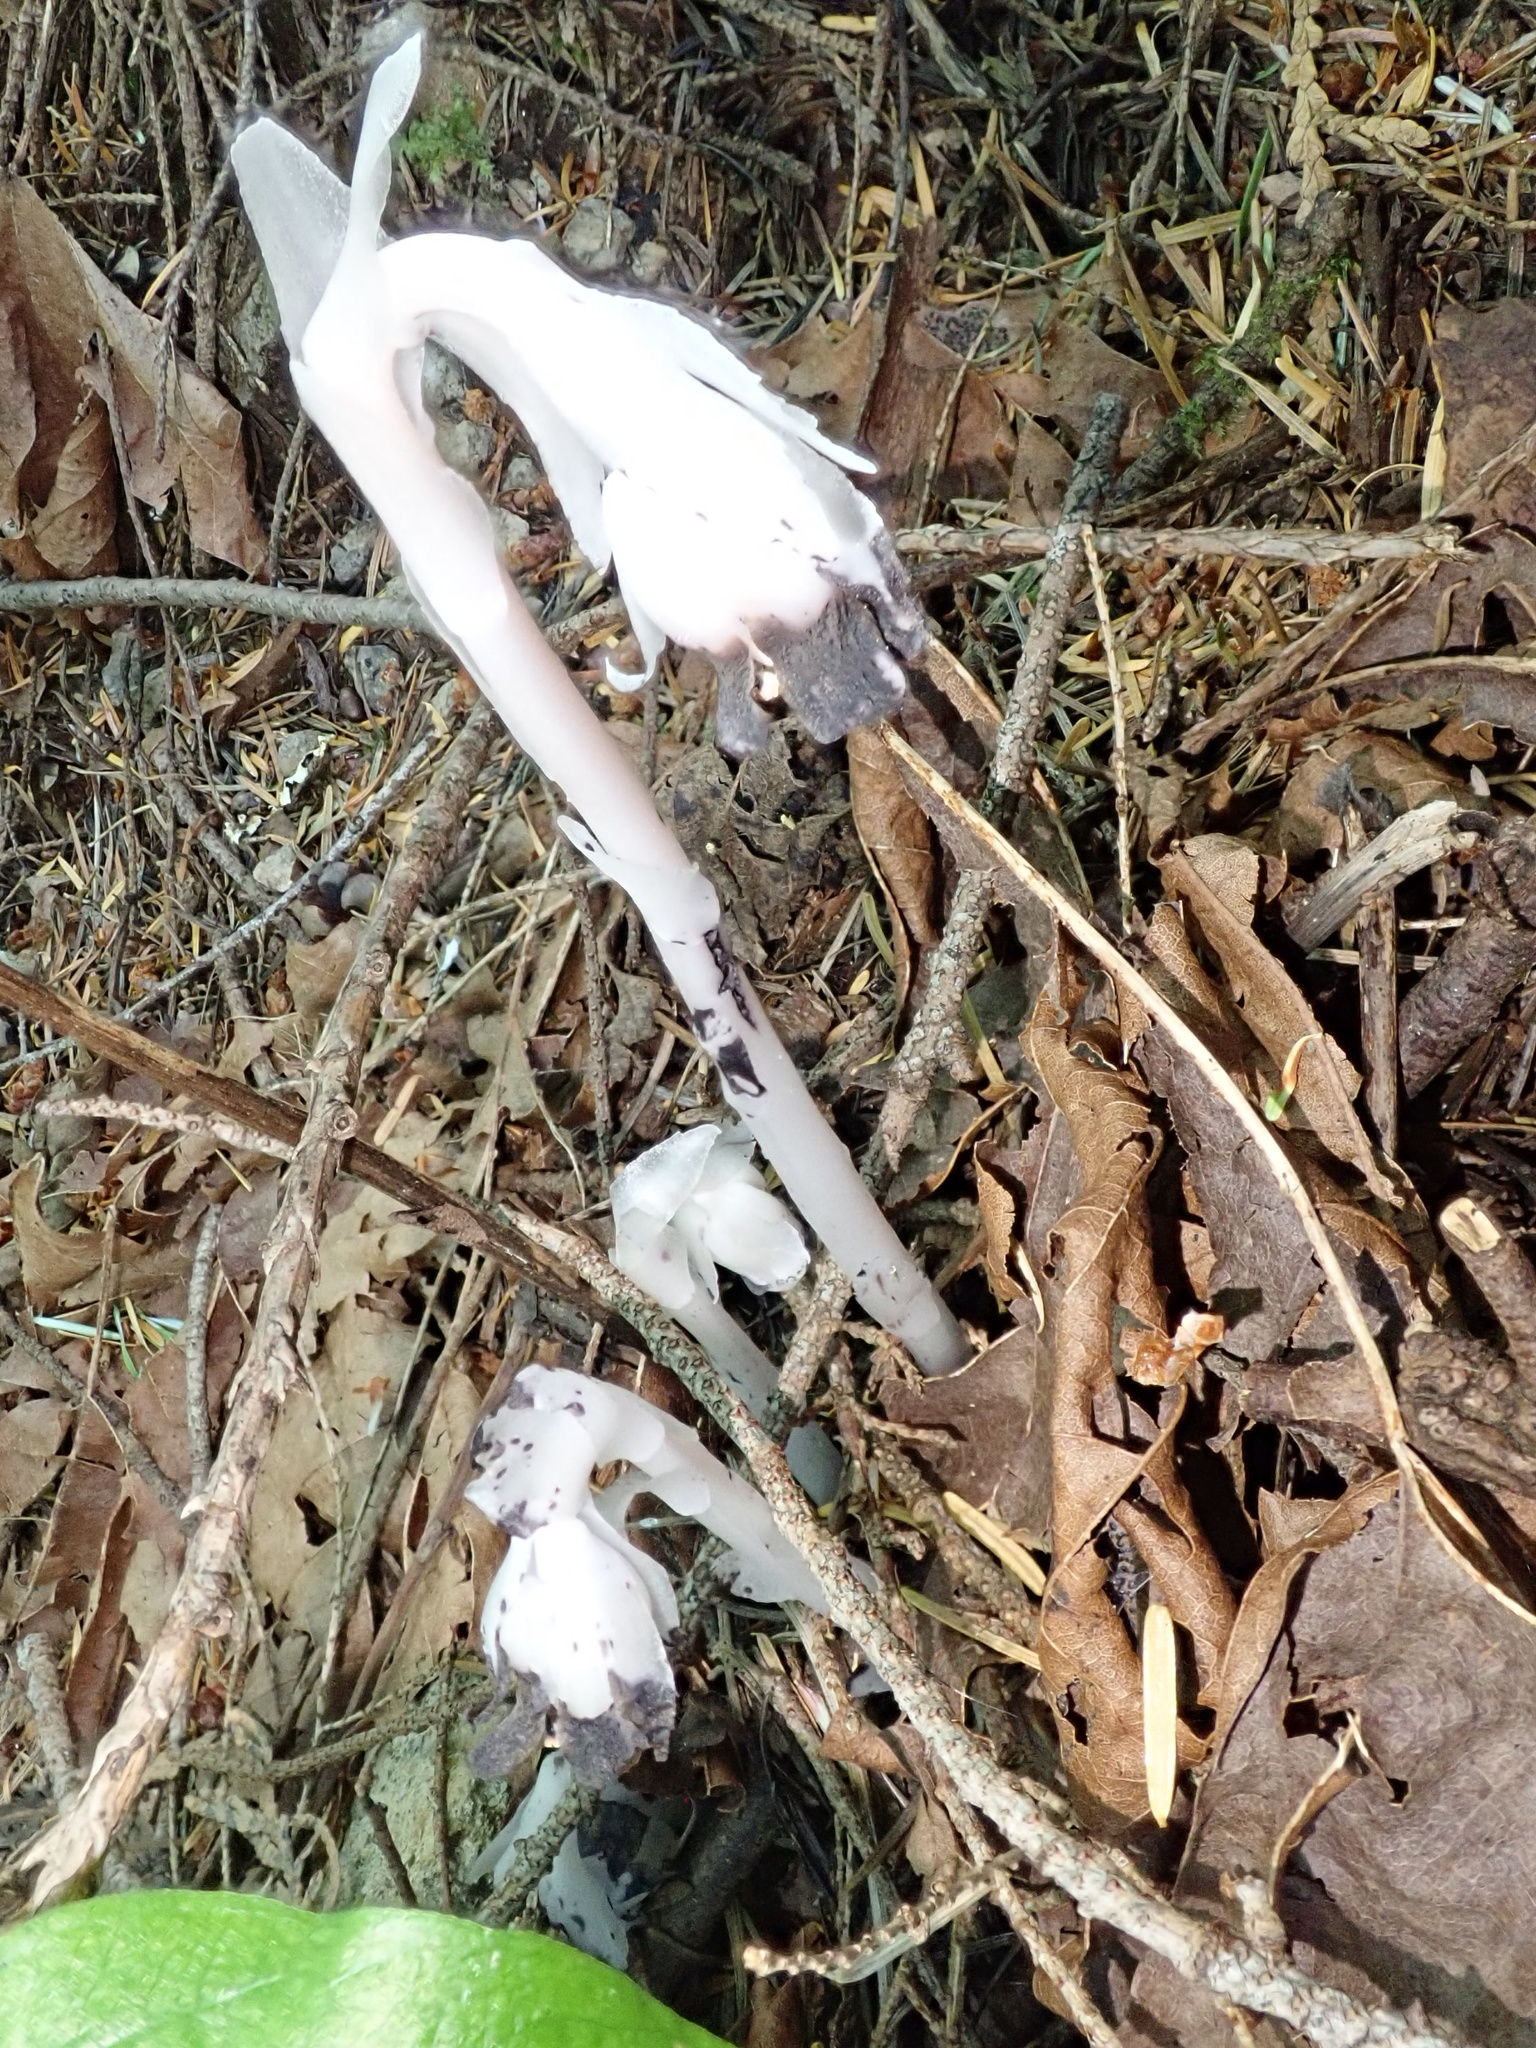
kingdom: Plantae
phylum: Tracheophyta
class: Magnoliopsida
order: Ericales
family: Ericaceae
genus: Monotropa
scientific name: Monotropa uniflora
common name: Convulsion root
